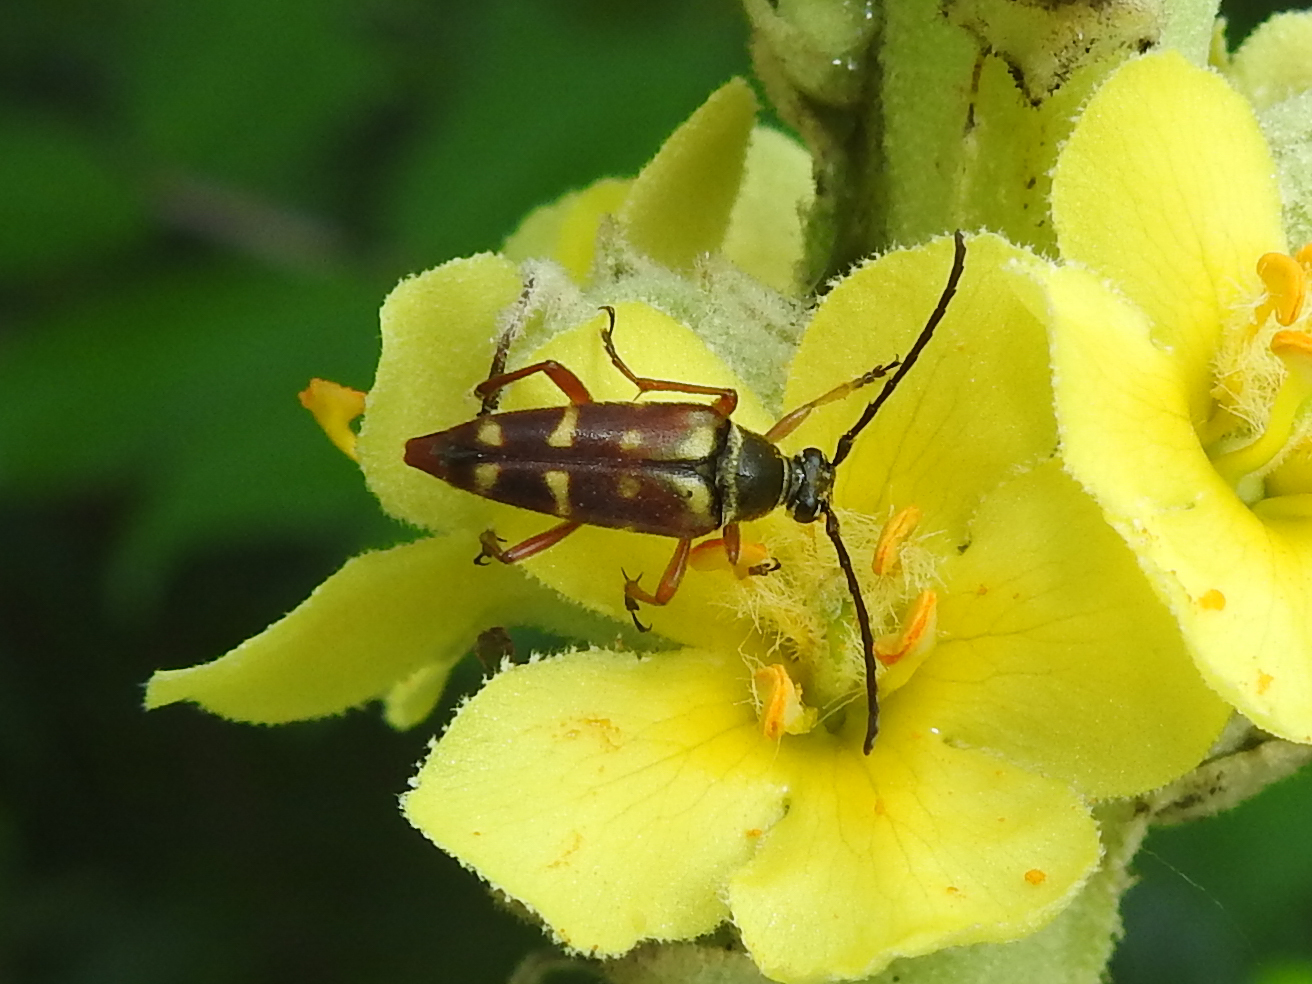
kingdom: Animalia
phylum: Arthropoda
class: Insecta
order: Coleoptera
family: Cerambycidae
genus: Typocerus
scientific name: Typocerus velutinus
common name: Banded longhorn beetle
